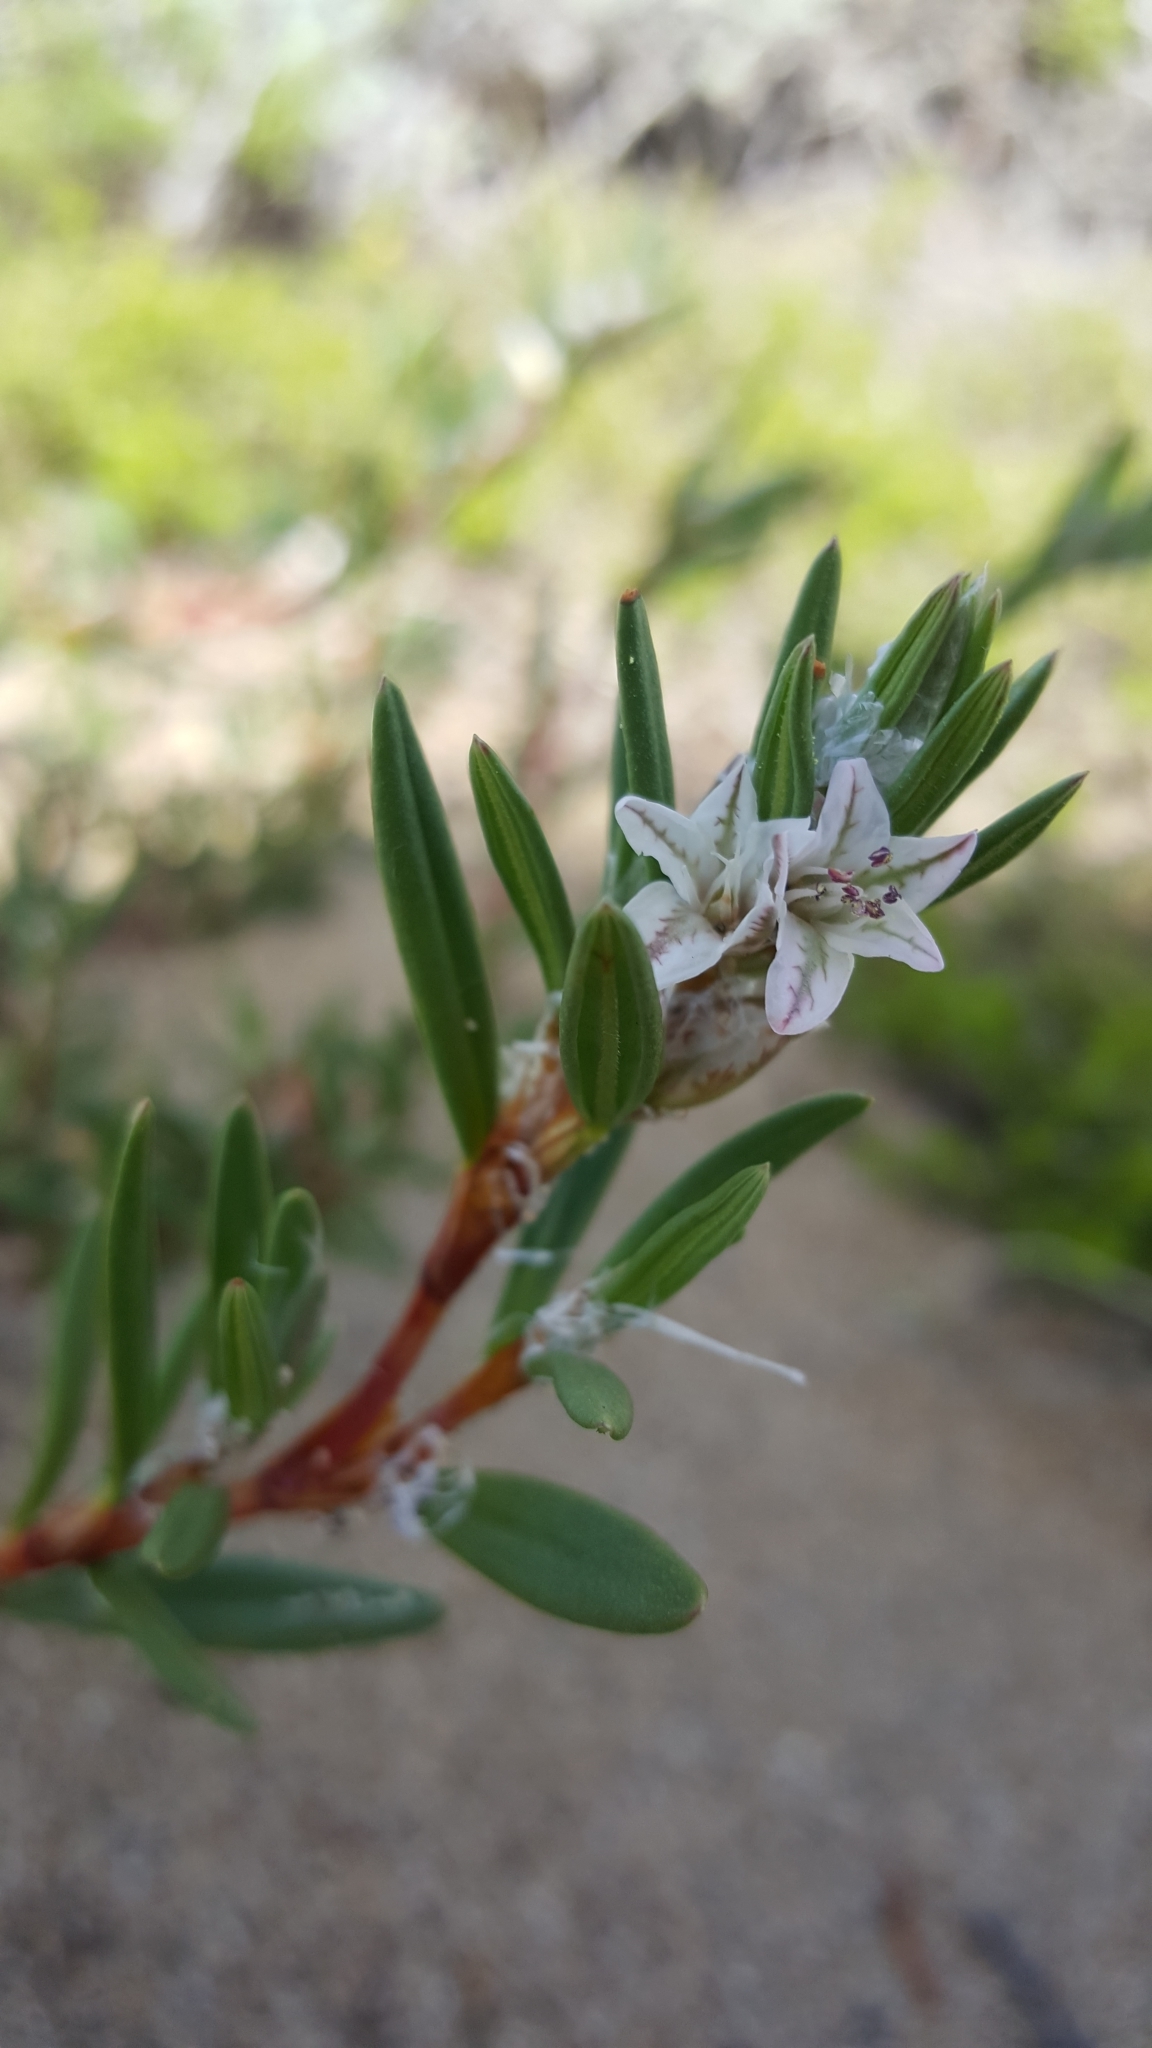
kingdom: Plantae
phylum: Tracheophyta
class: Magnoliopsida
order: Caryophyllales
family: Polygonaceae
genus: Polygonum
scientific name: Polygonum paronychia
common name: Dune knotweed
